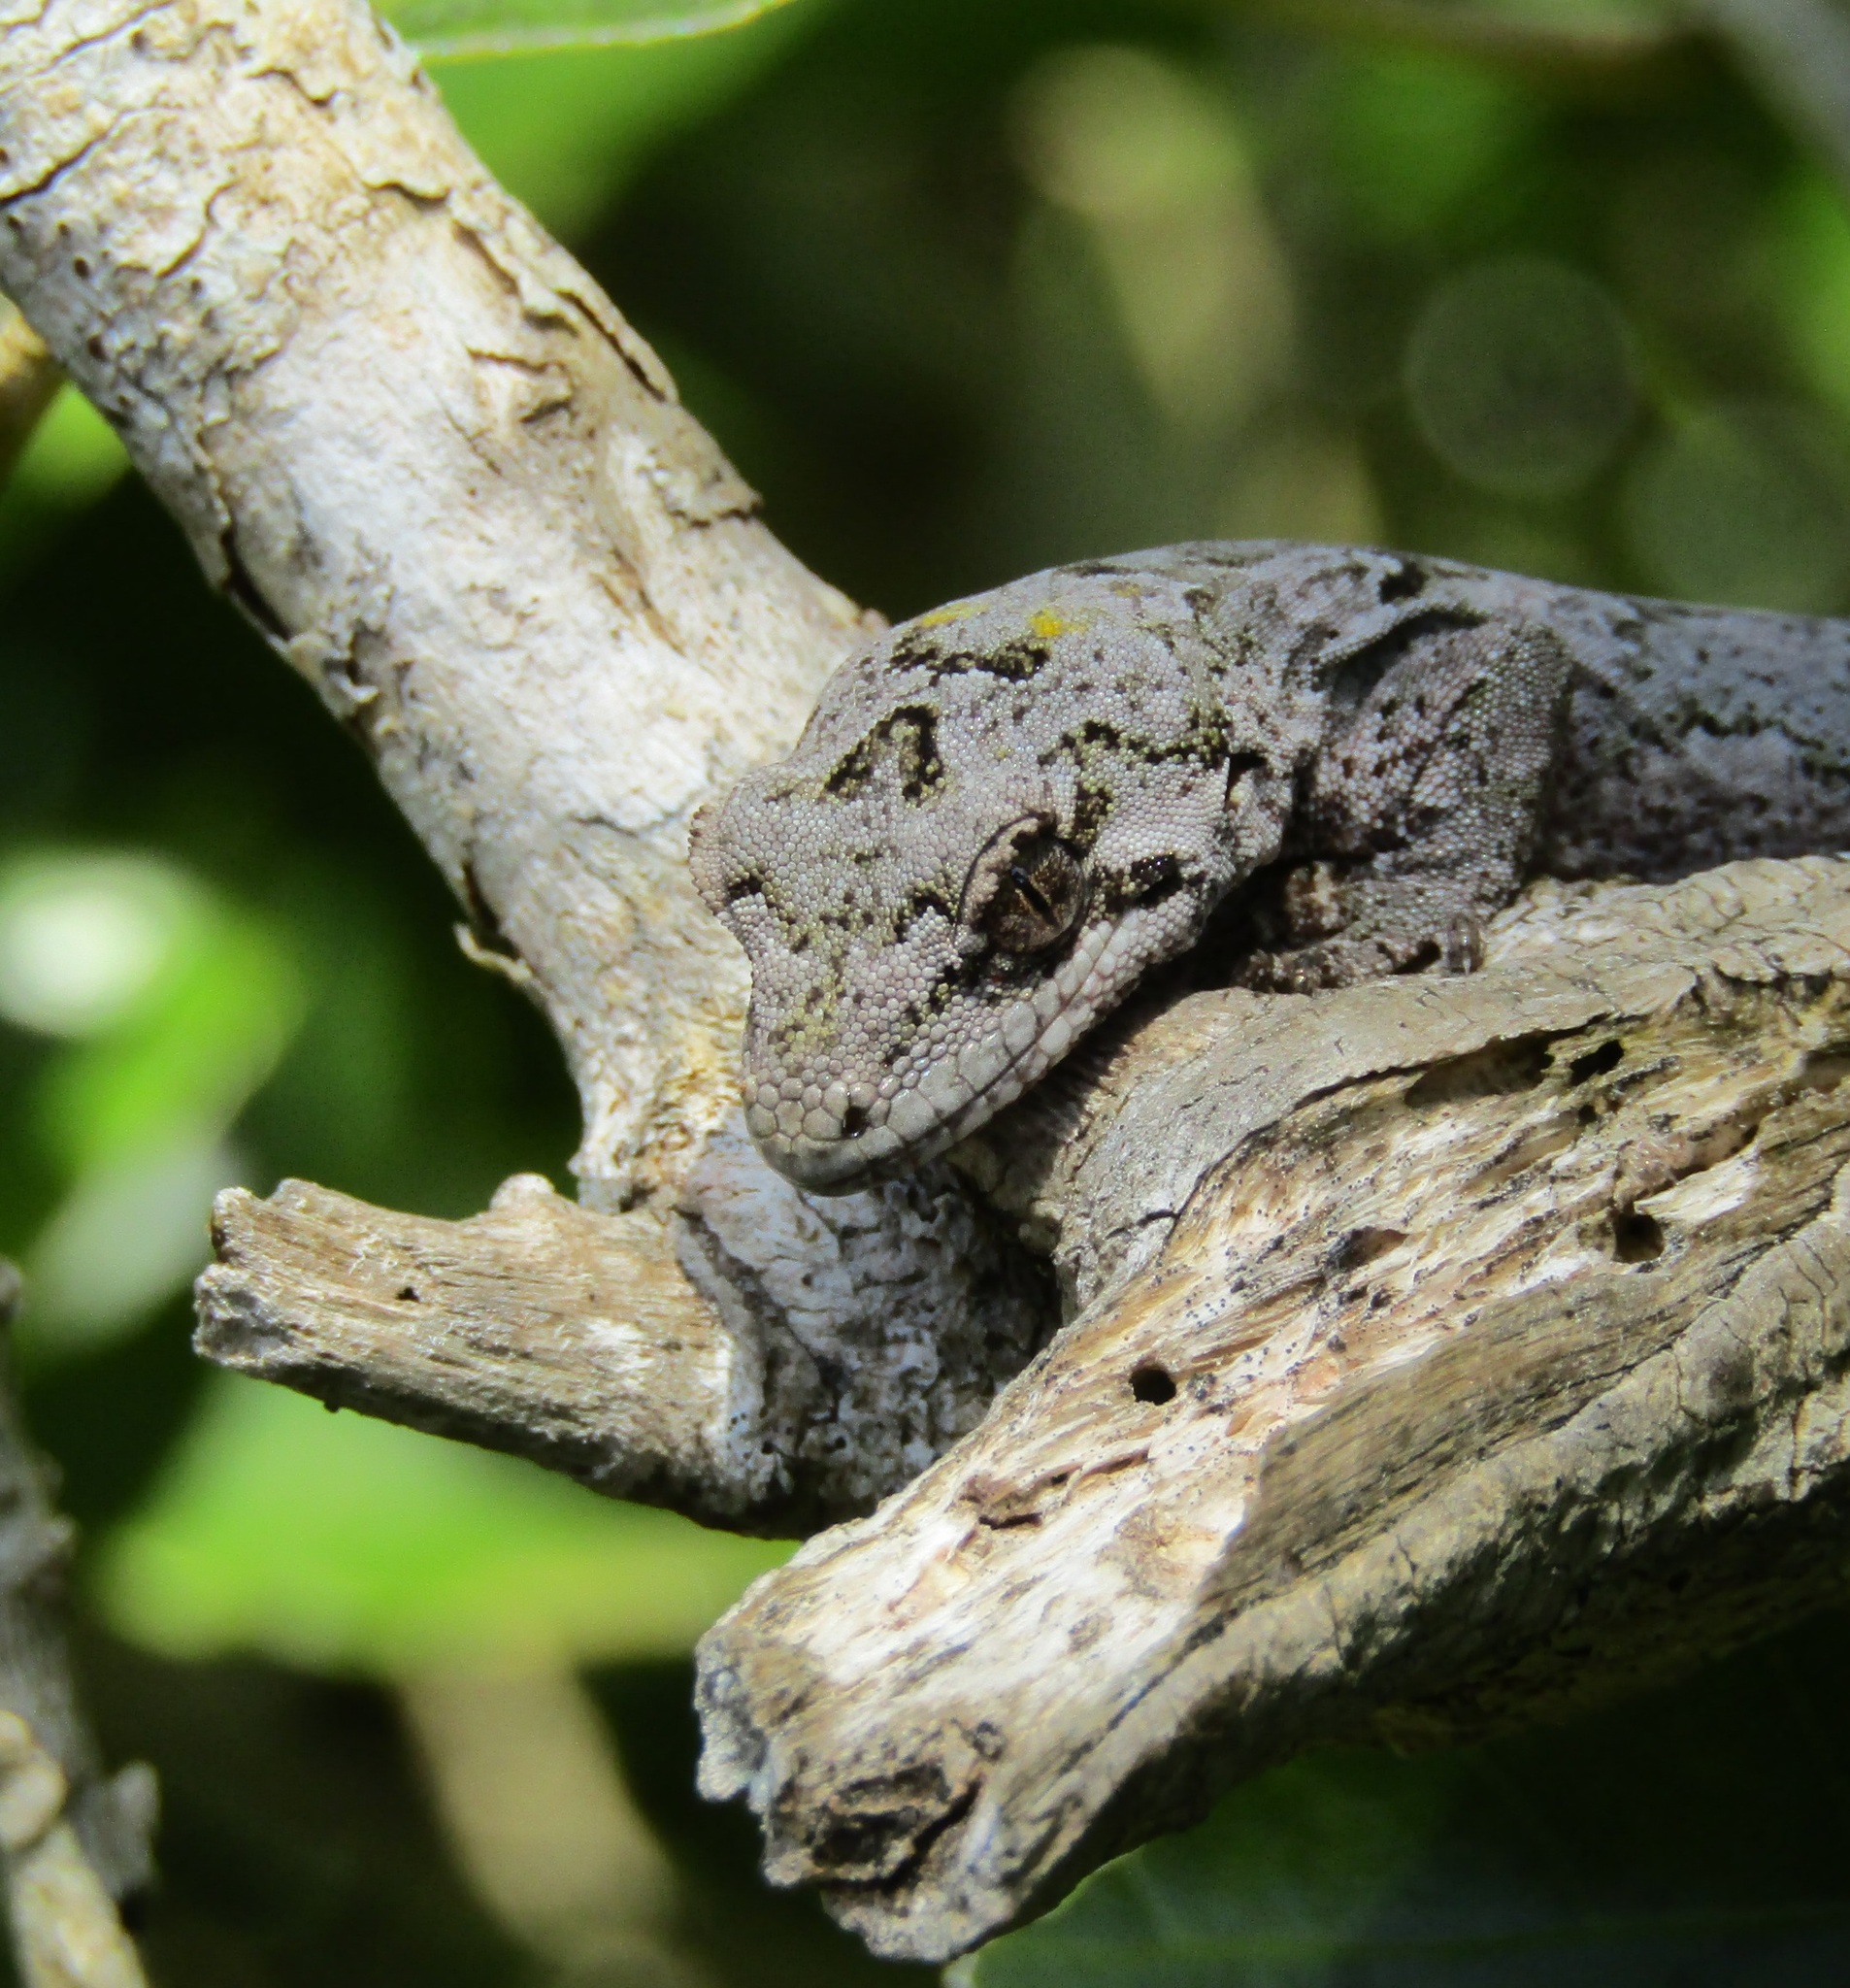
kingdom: Animalia
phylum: Chordata
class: Squamata
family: Diplodactylidae
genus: Mokopirirakau
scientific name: Mokopirirakau
